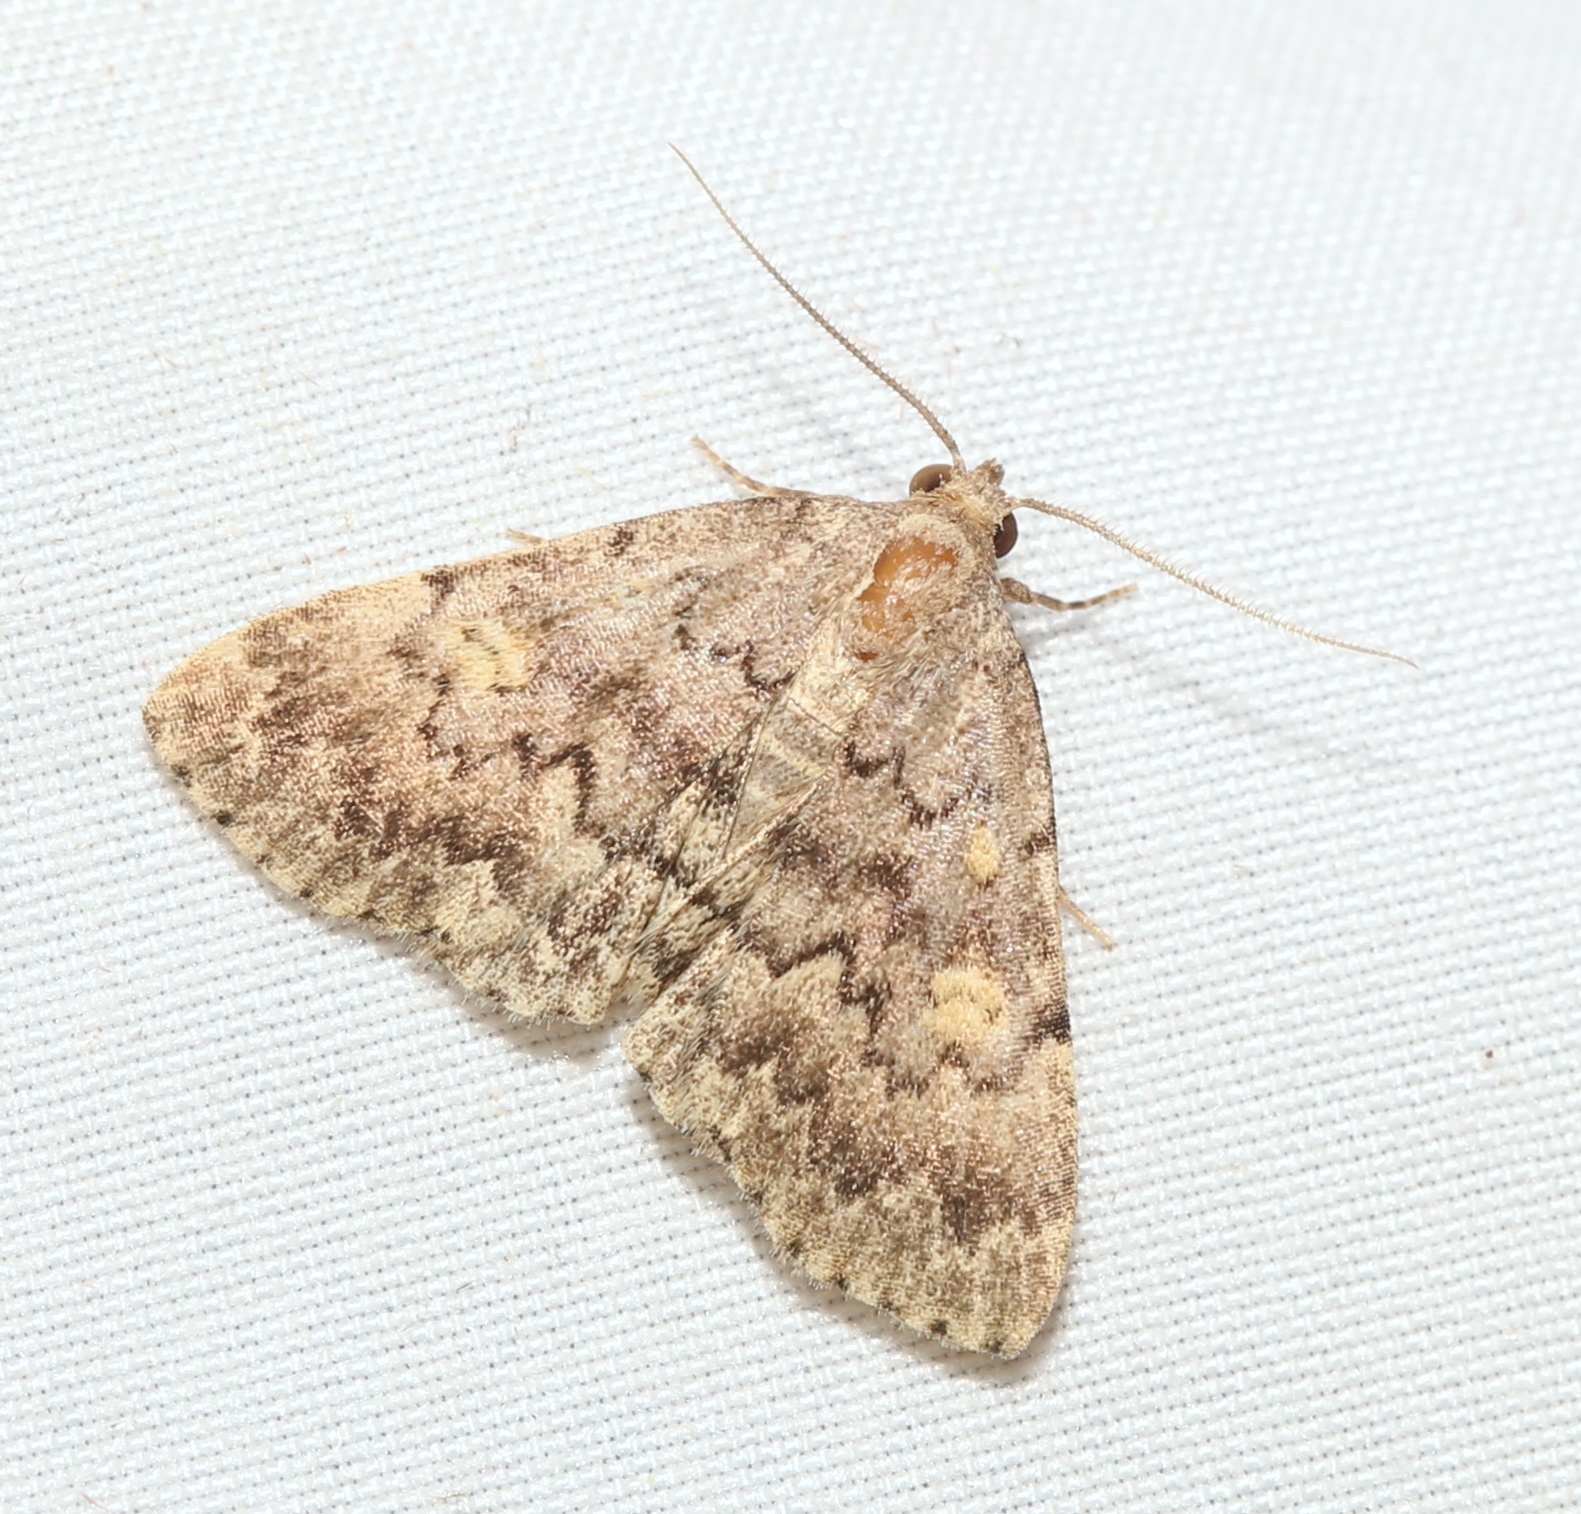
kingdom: Animalia
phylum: Arthropoda
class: Insecta
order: Lepidoptera
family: Erebidae
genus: Idia
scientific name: Idia aemula
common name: Common idia moth
